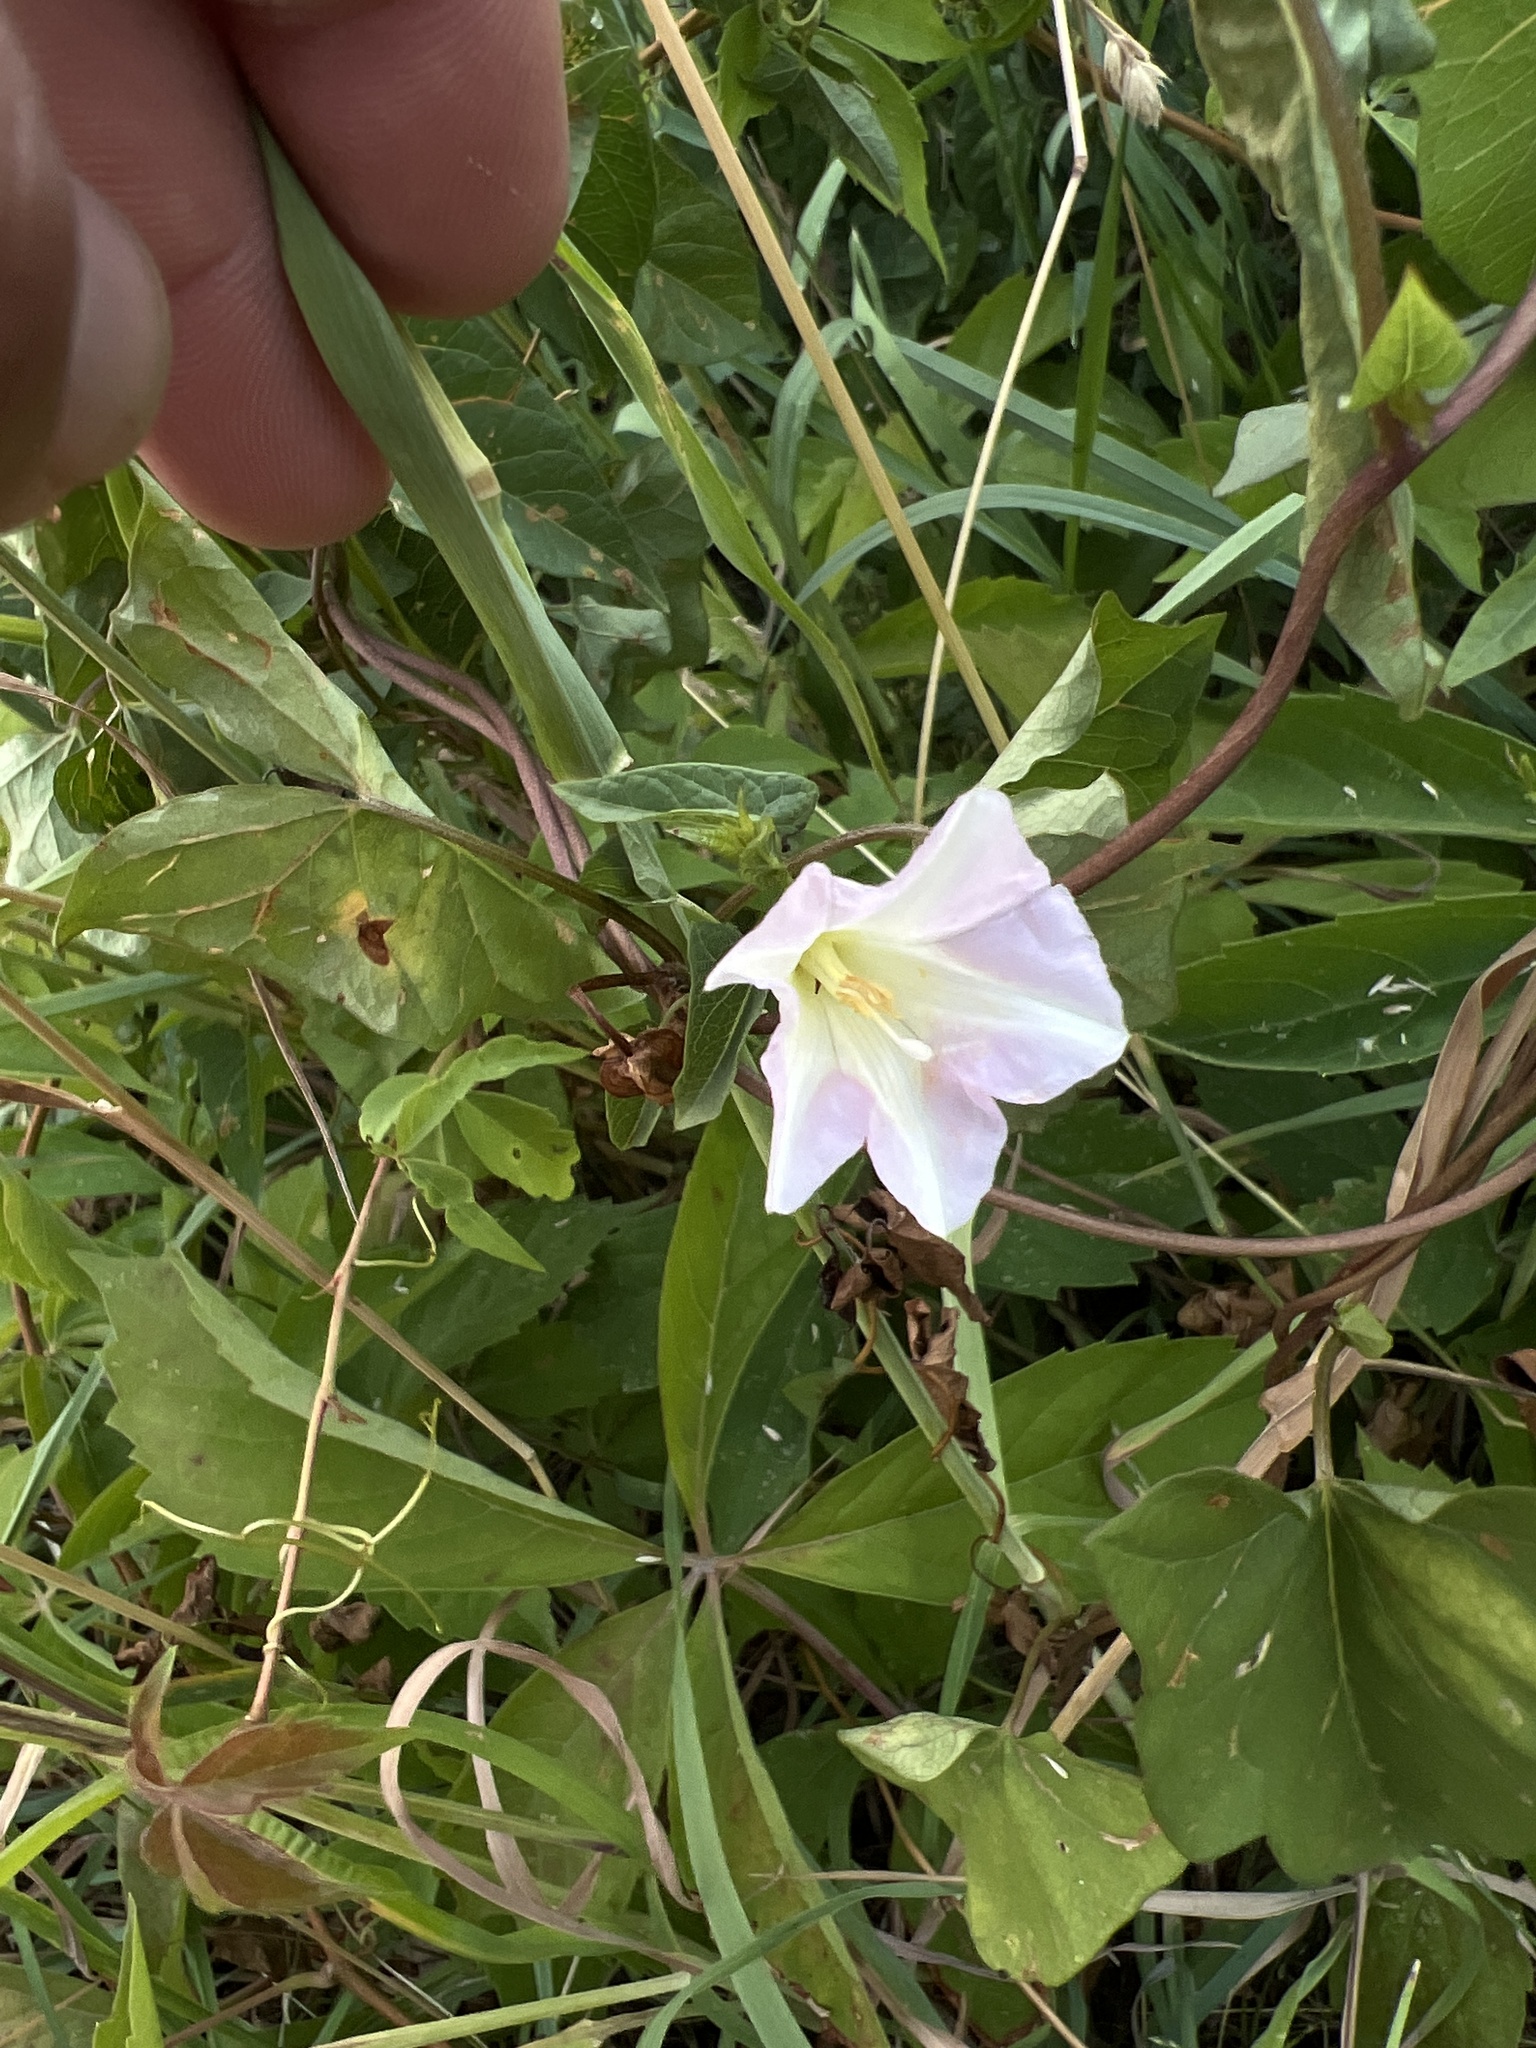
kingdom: Plantae
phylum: Tracheophyta
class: Magnoliopsida
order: Solanales
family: Convolvulaceae
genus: Calystegia
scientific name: Calystegia sepium
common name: Hedge bindweed
